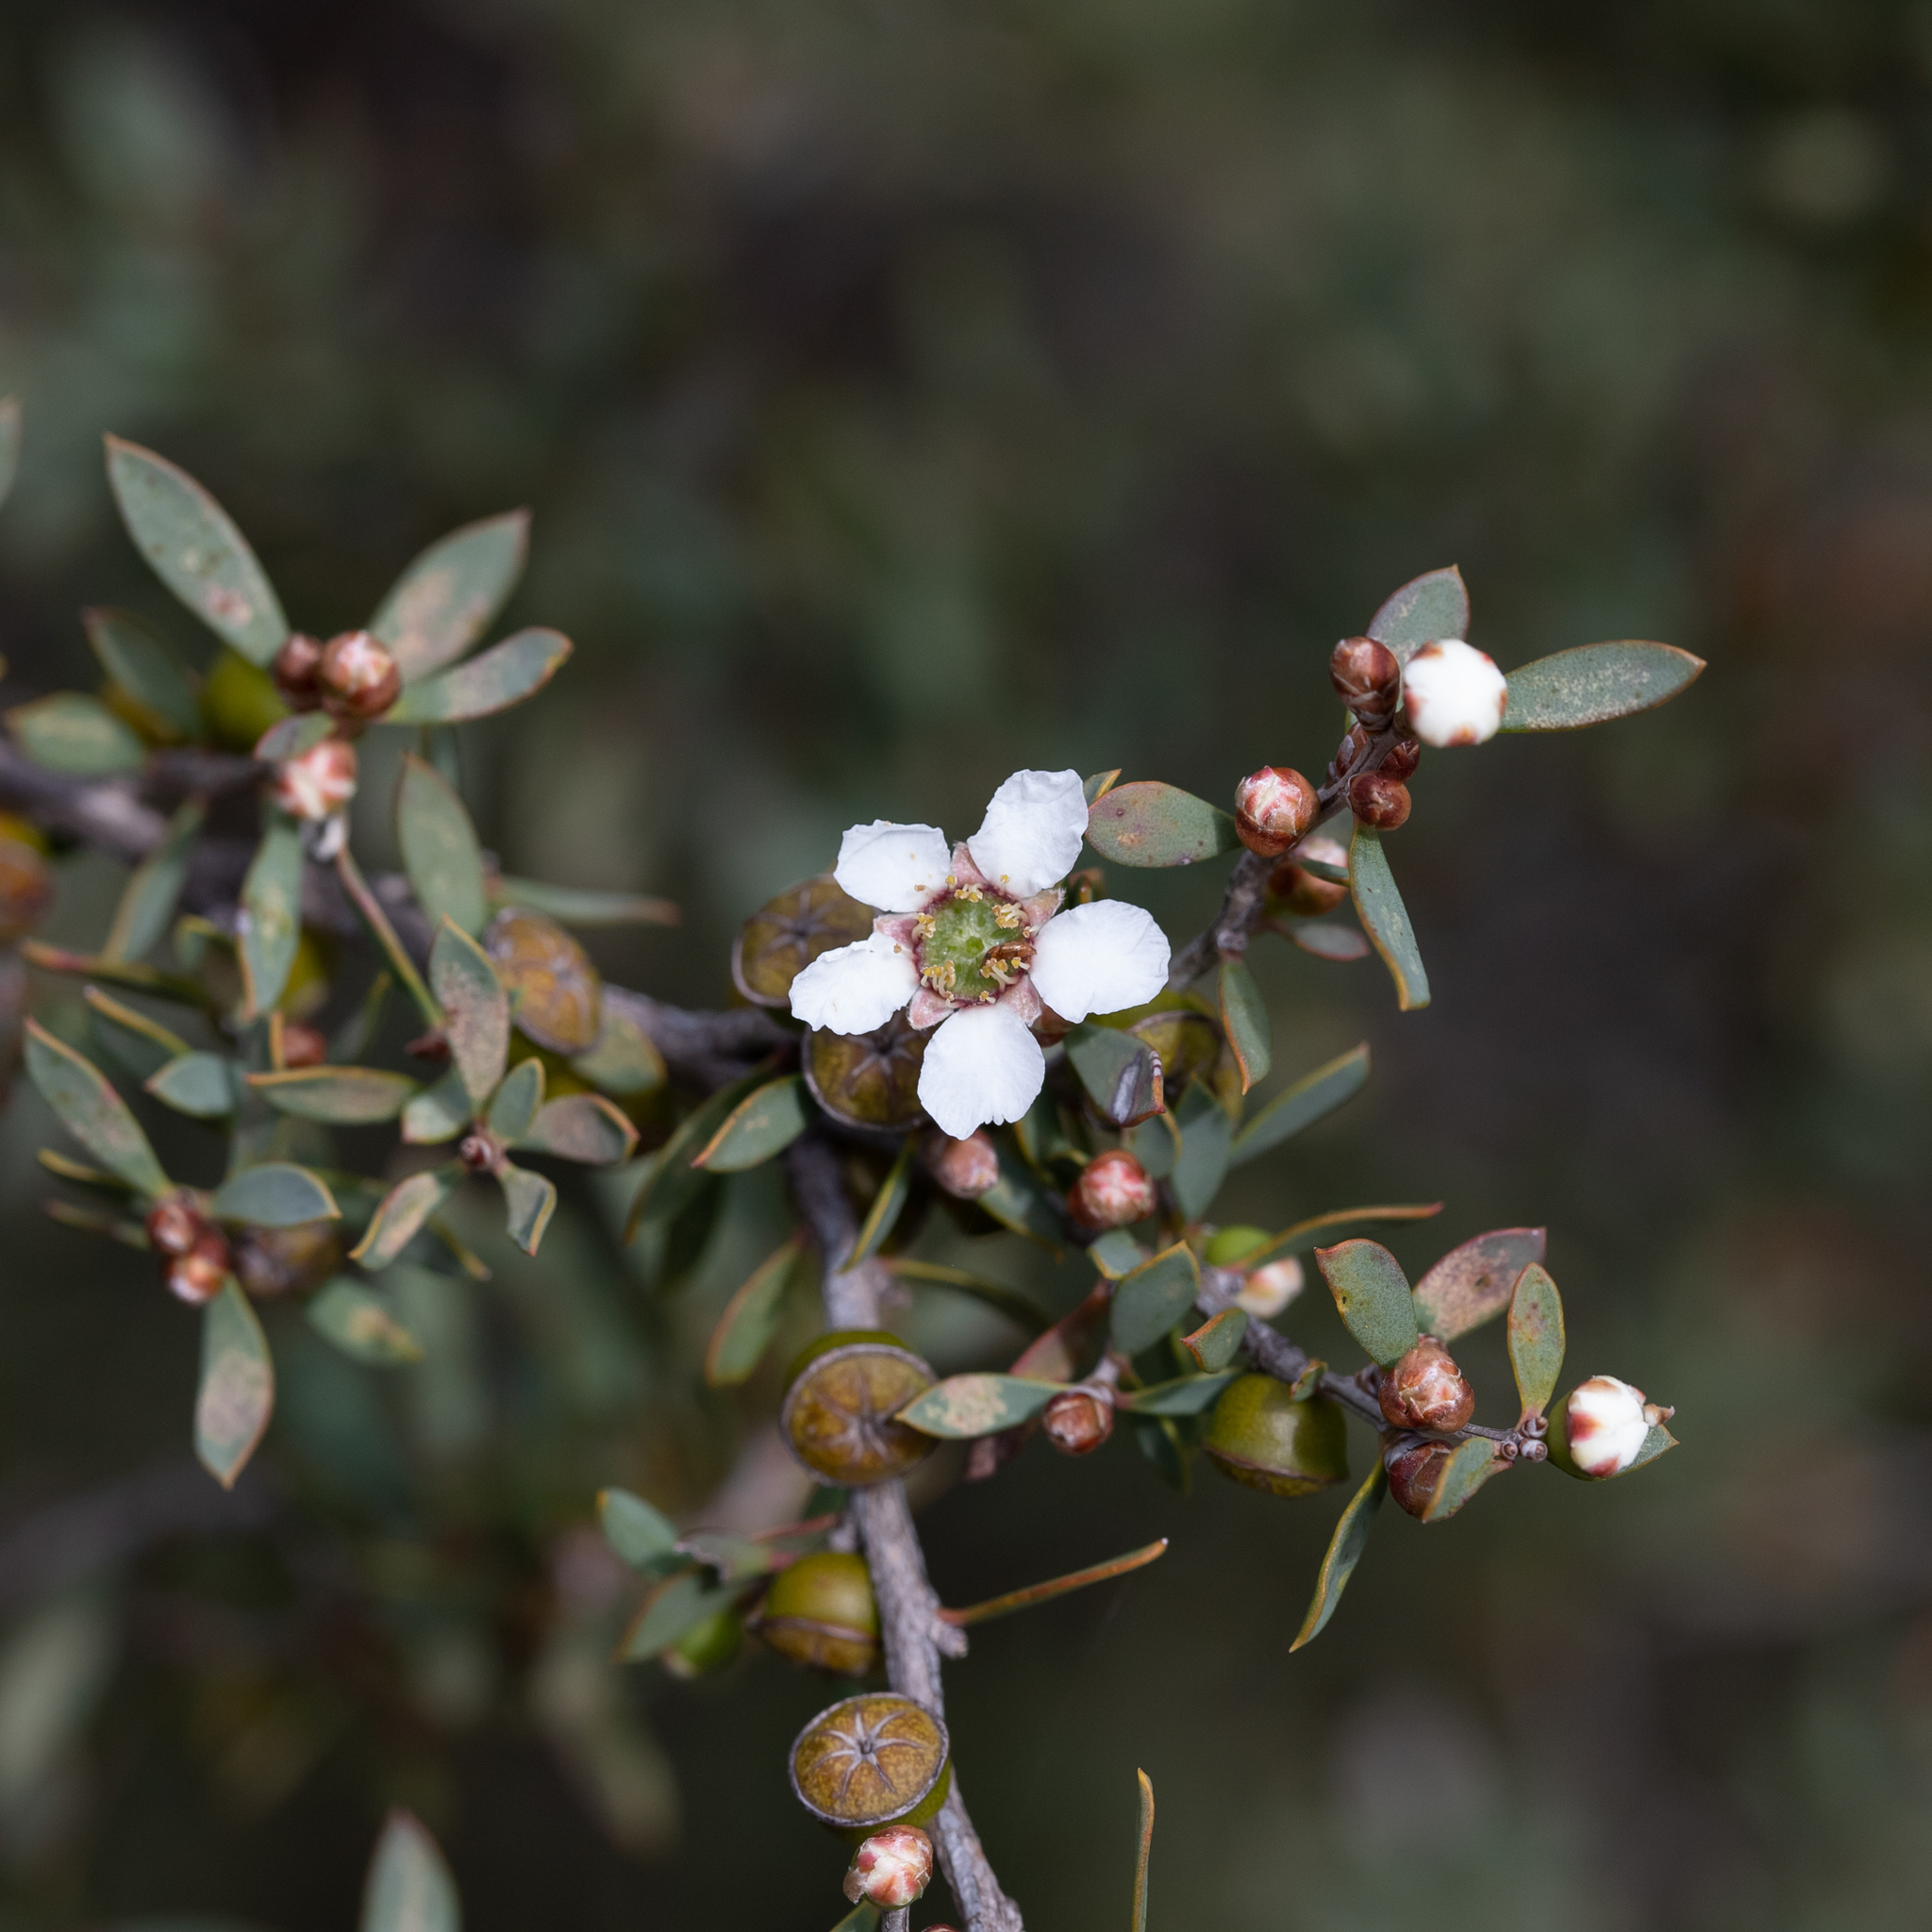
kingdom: Plantae
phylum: Tracheophyta
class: Magnoliopsida
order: Myrtales
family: Myrtaceae
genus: Leptospermum
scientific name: Leptospermum coriaceum
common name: Mallee teatree
